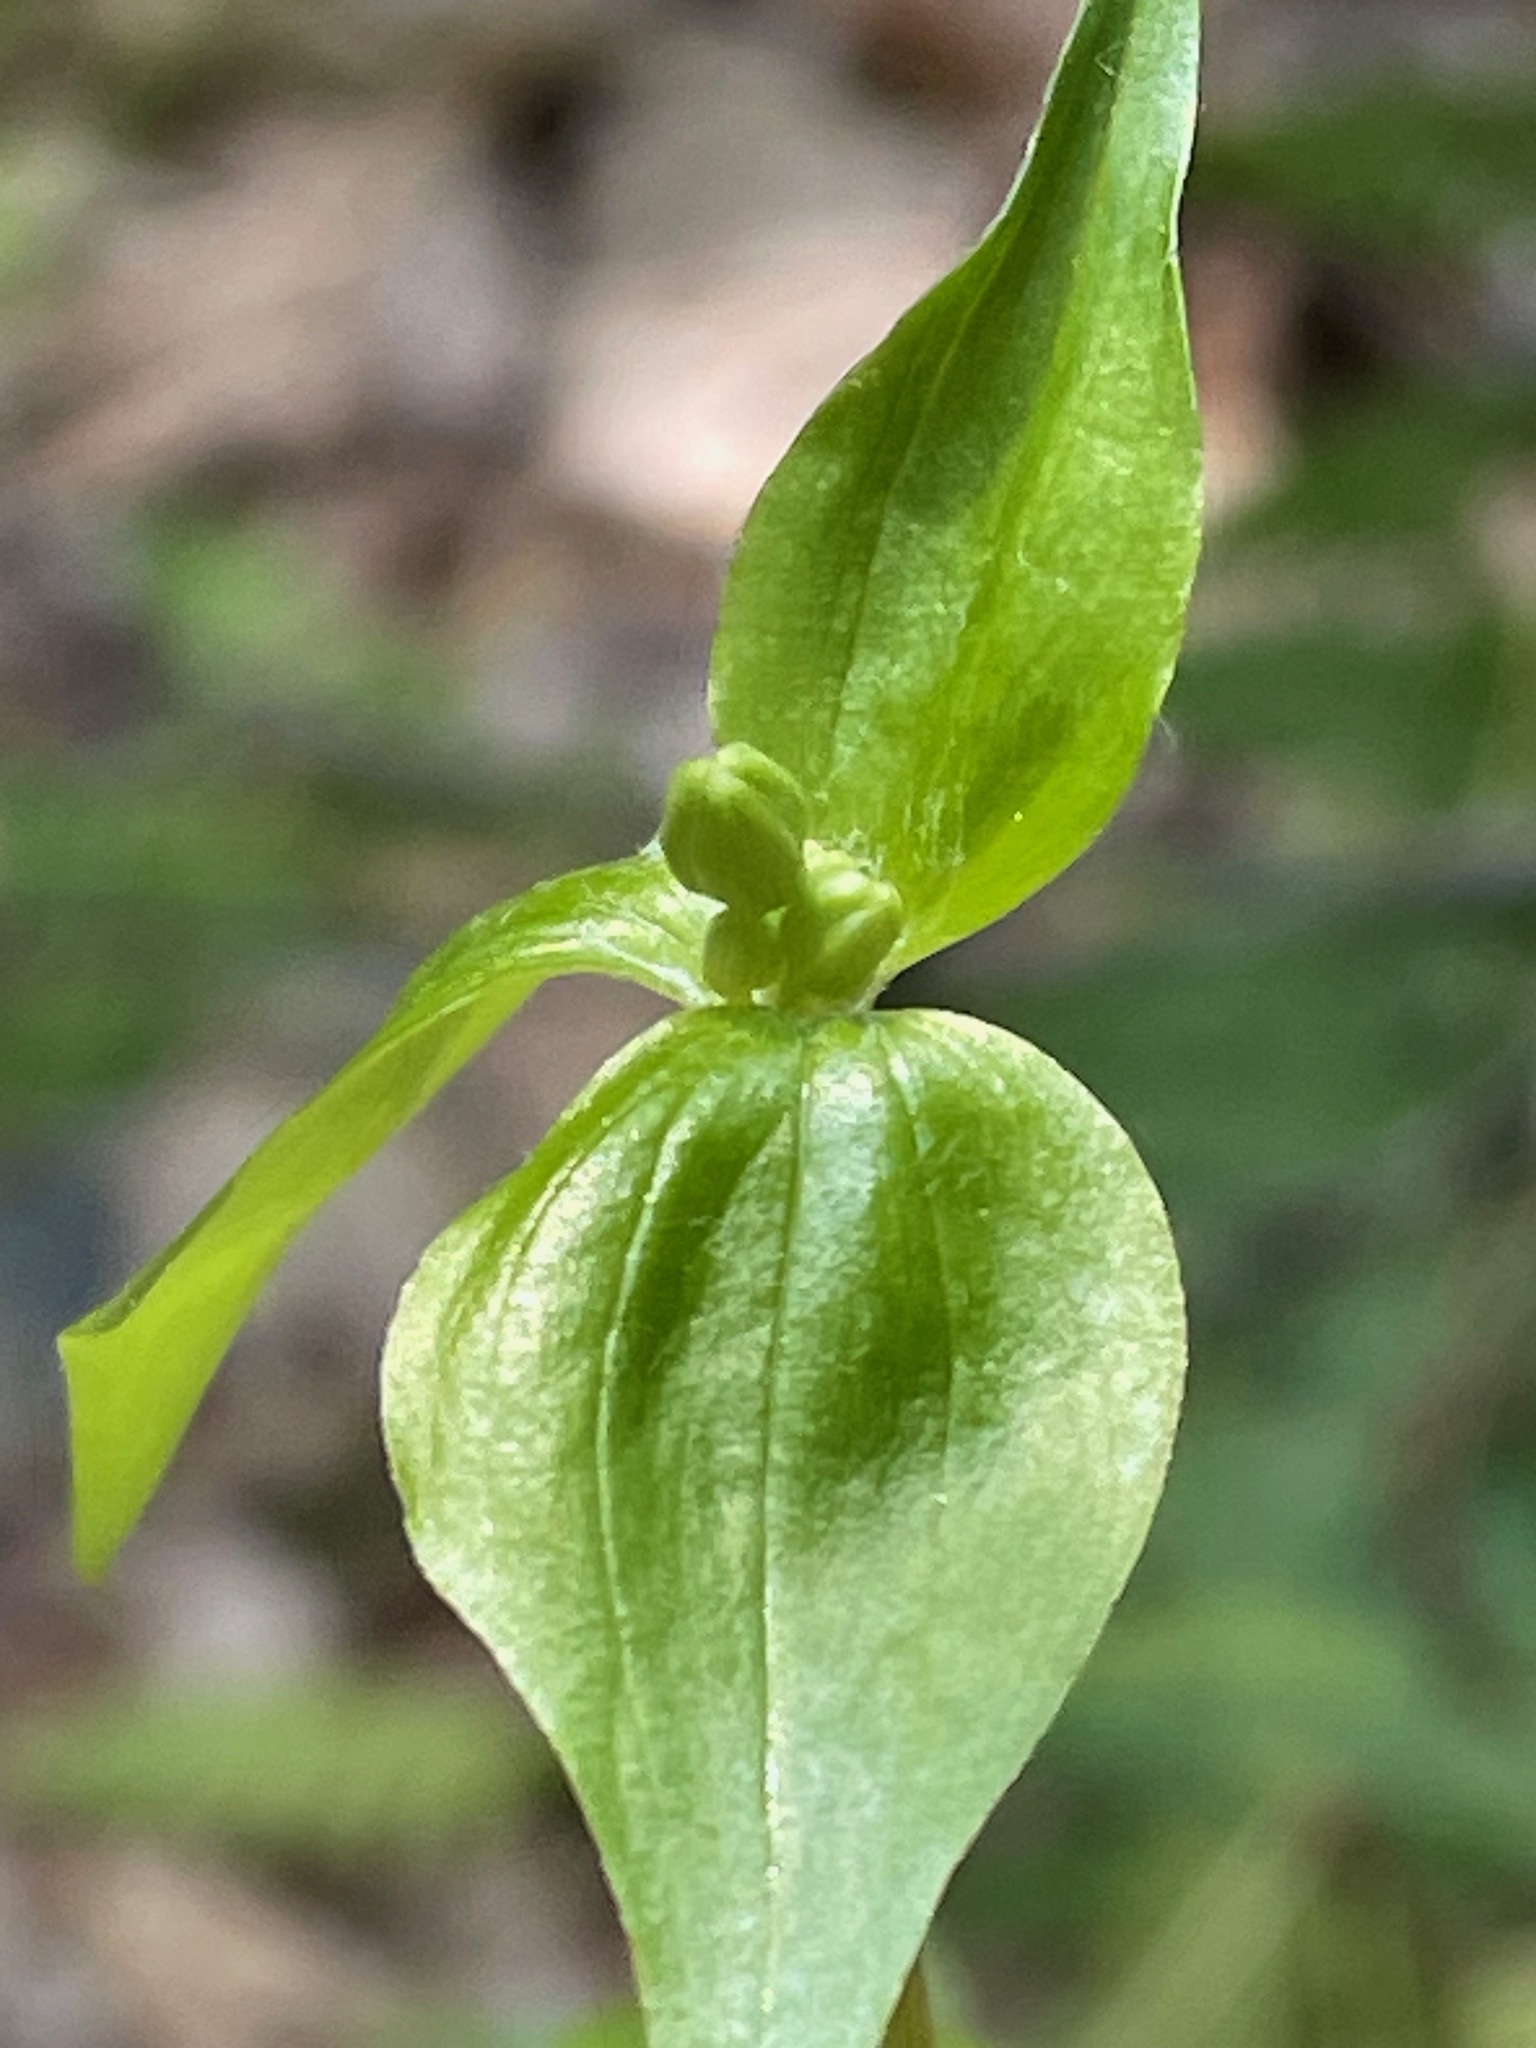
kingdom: Plantae
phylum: Tracheophyta
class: Liliopsida
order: Liliales
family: Liliaceae
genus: Medeola
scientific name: Medeola virginiana
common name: Indian cucumber-root
